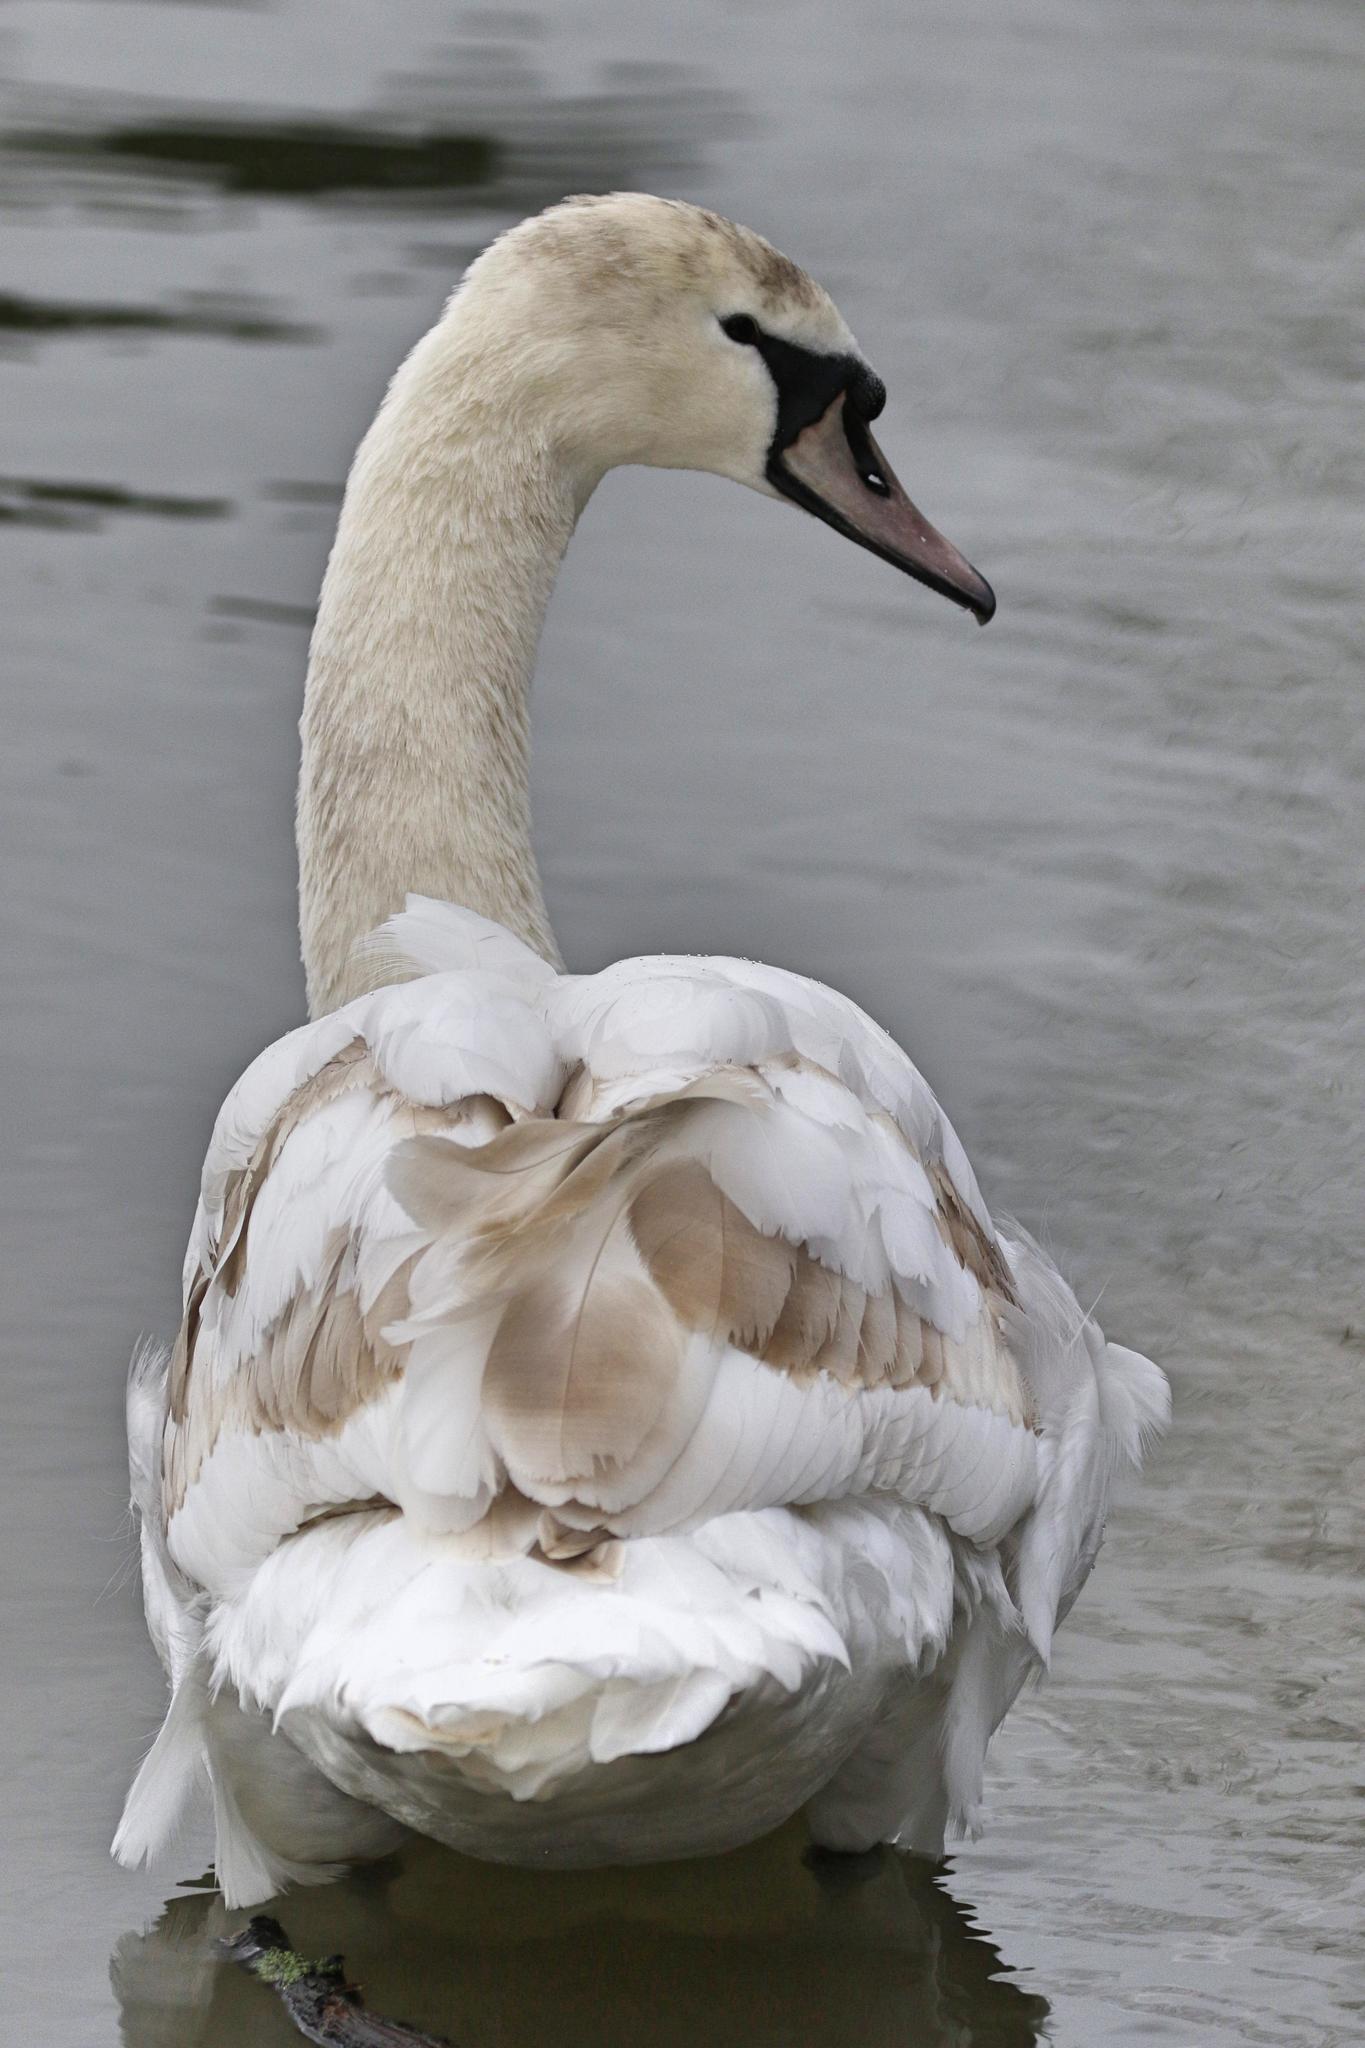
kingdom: Animalia
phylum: Chordata
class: Aves
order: Anseriformes
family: Anatidae
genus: Cygnus
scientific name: Cygnus olor
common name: Mute swan
